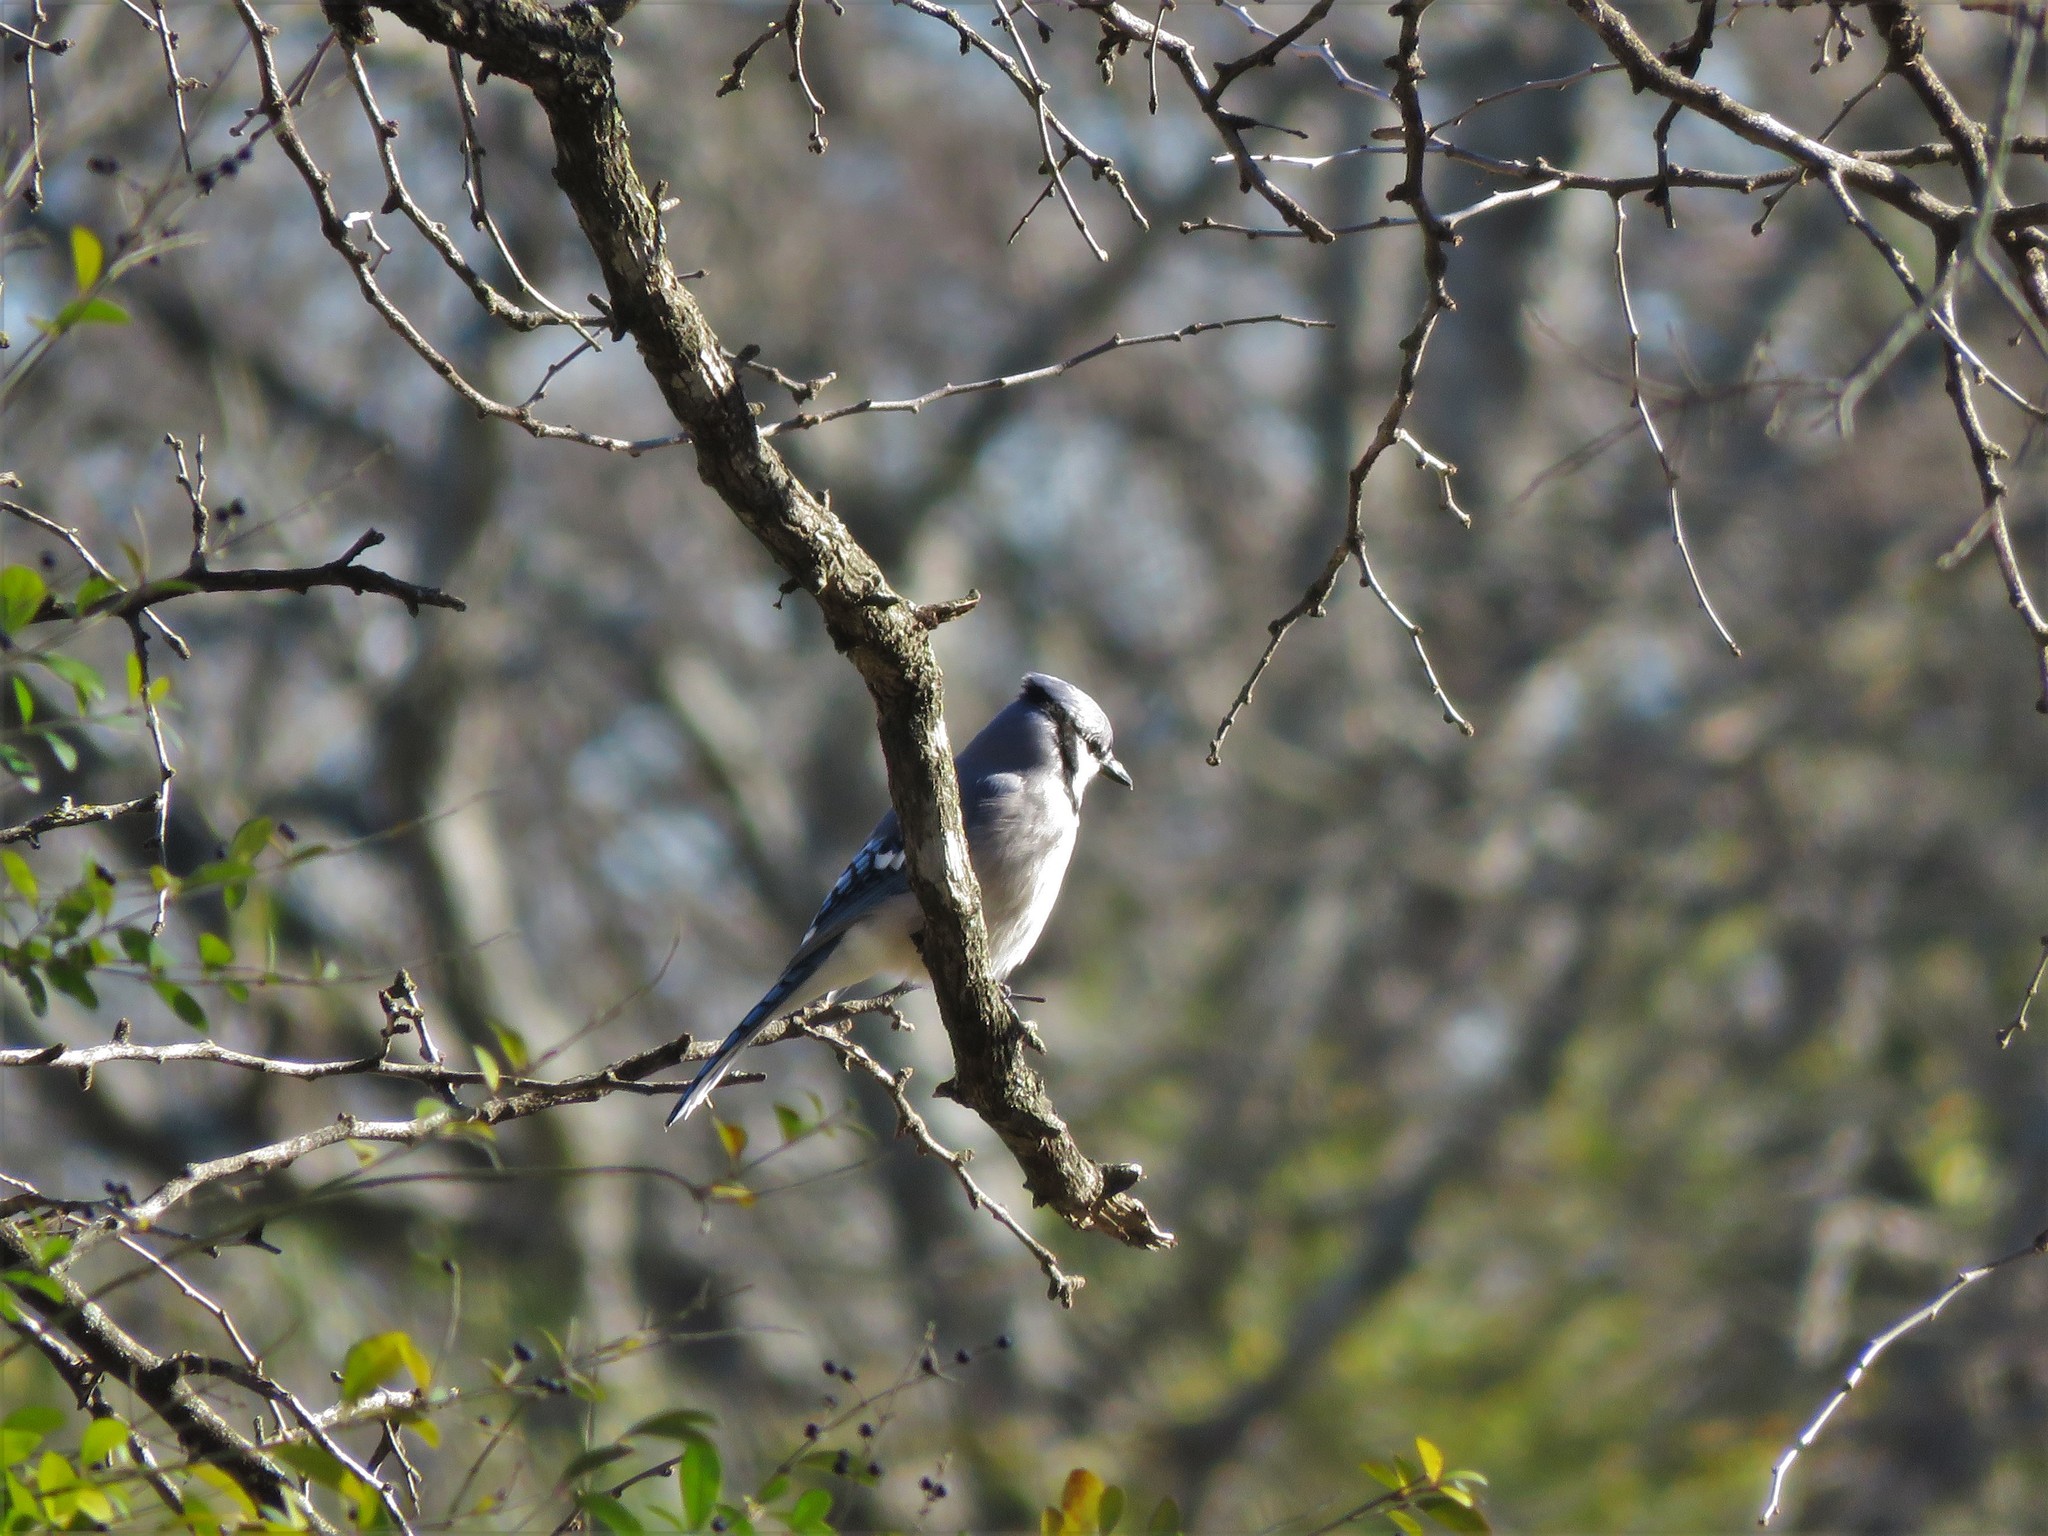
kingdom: Animalia
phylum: Chordata
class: Aves
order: Passeriformes
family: Corvidae
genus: Cyanocitta
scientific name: Cyanocitta cristata
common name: Blue jay
